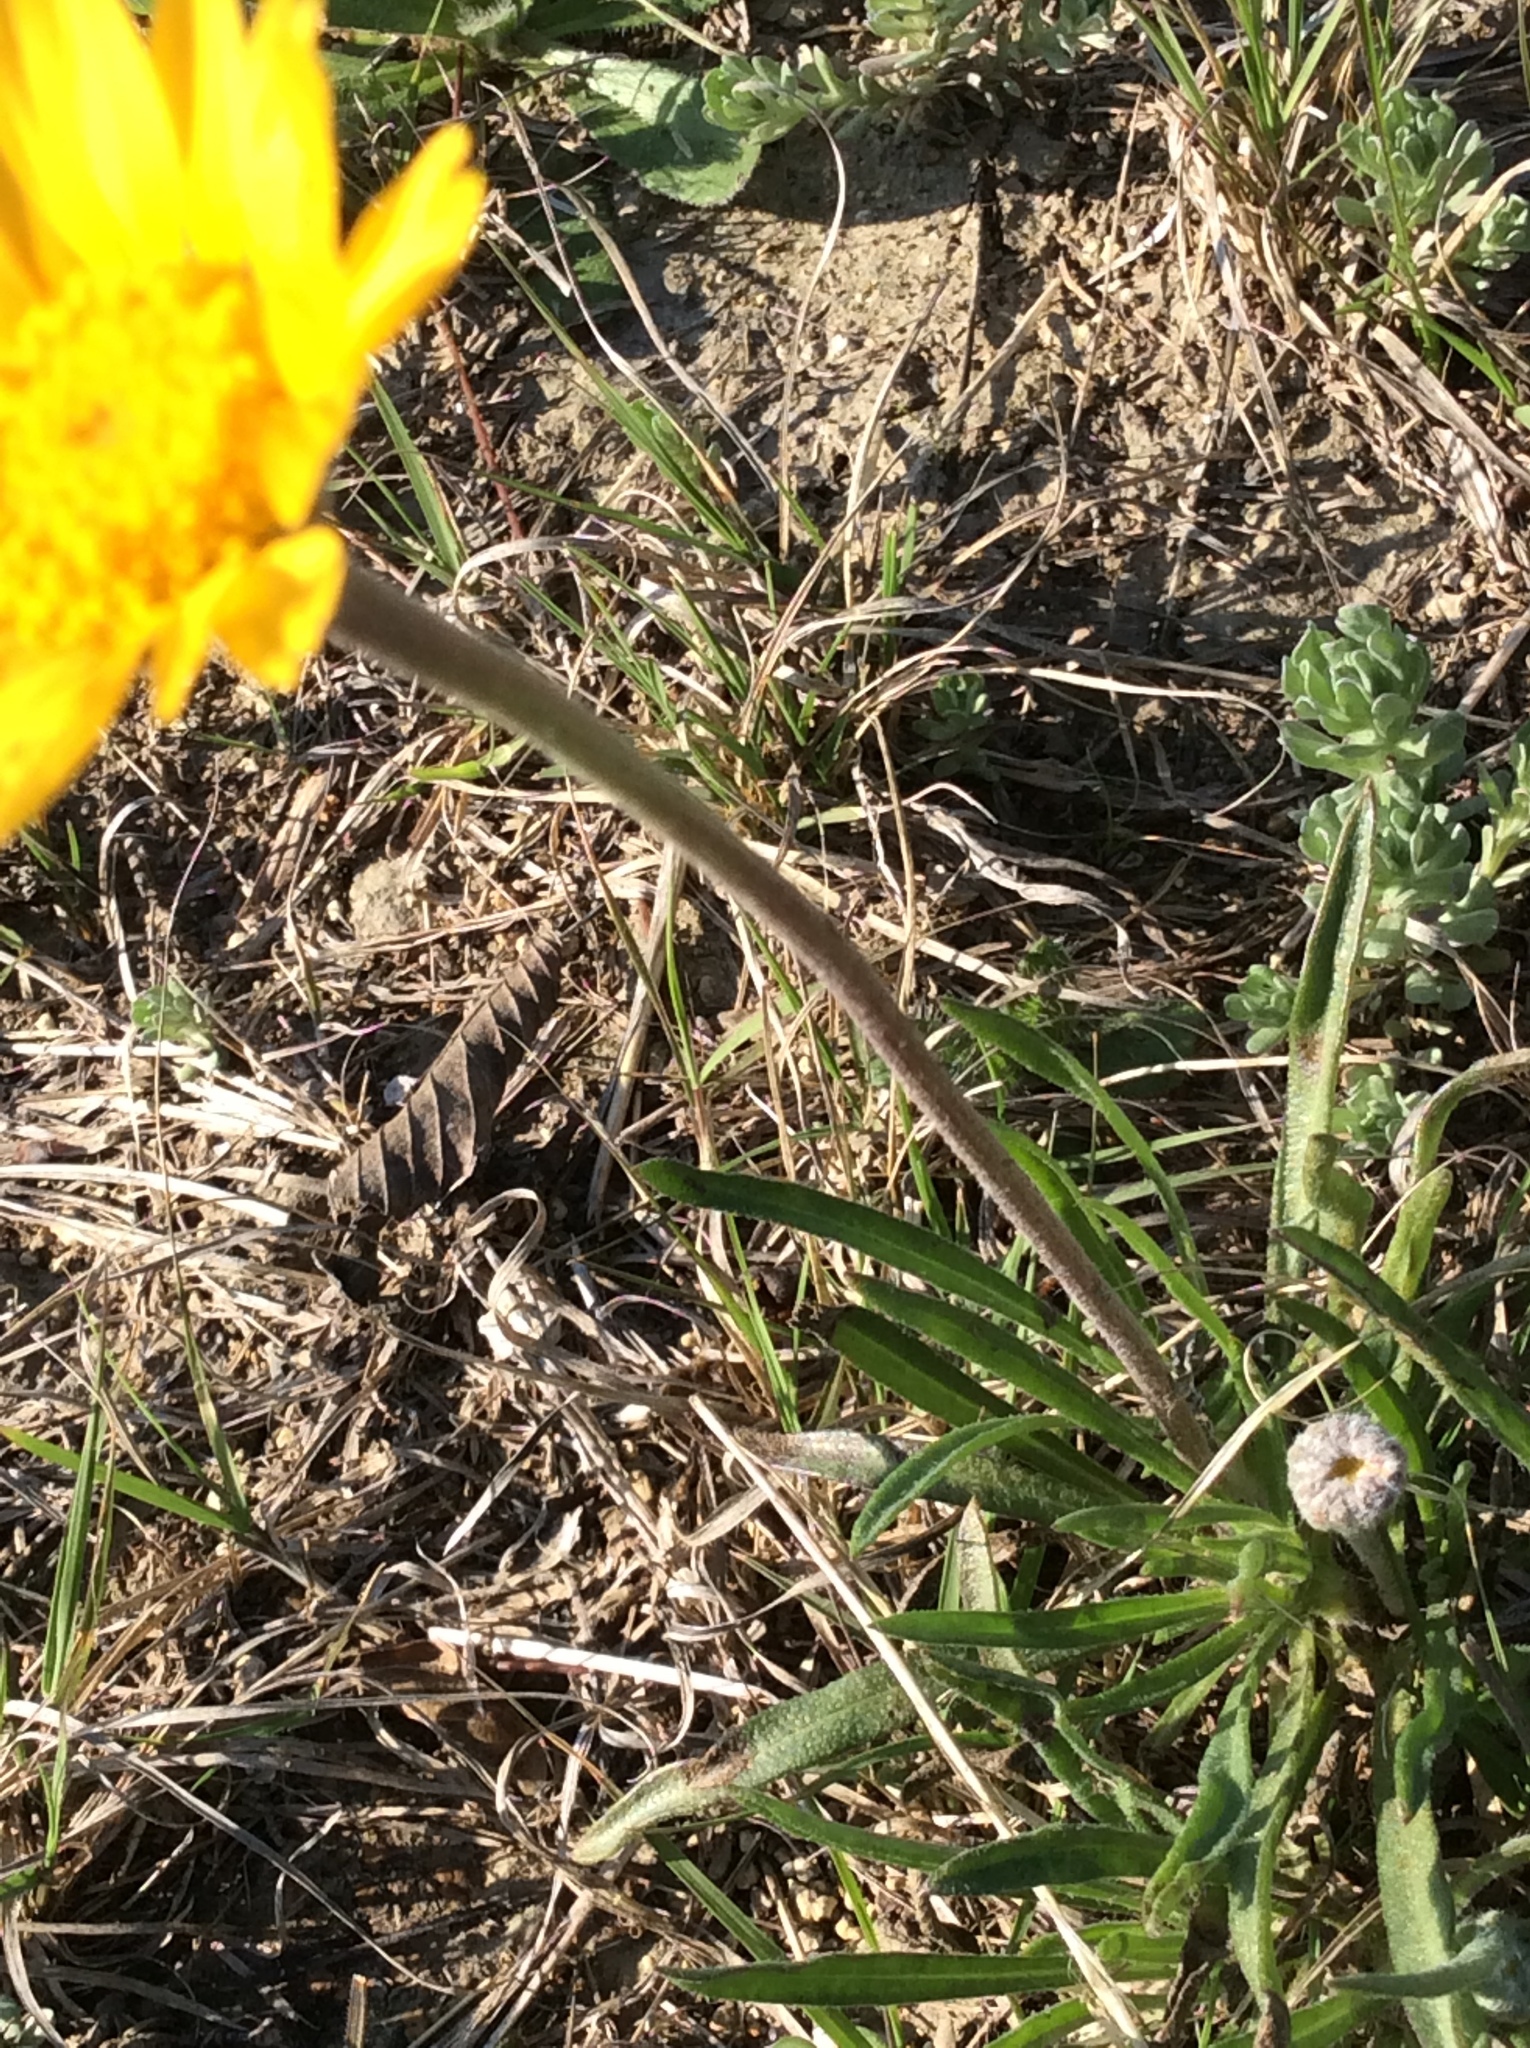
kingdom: Plantae
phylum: Tracheophyta
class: Magnoliopsida
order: Asterales
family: Asteraceae
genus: Tetraneuris
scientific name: Tetraneuris scaposa
